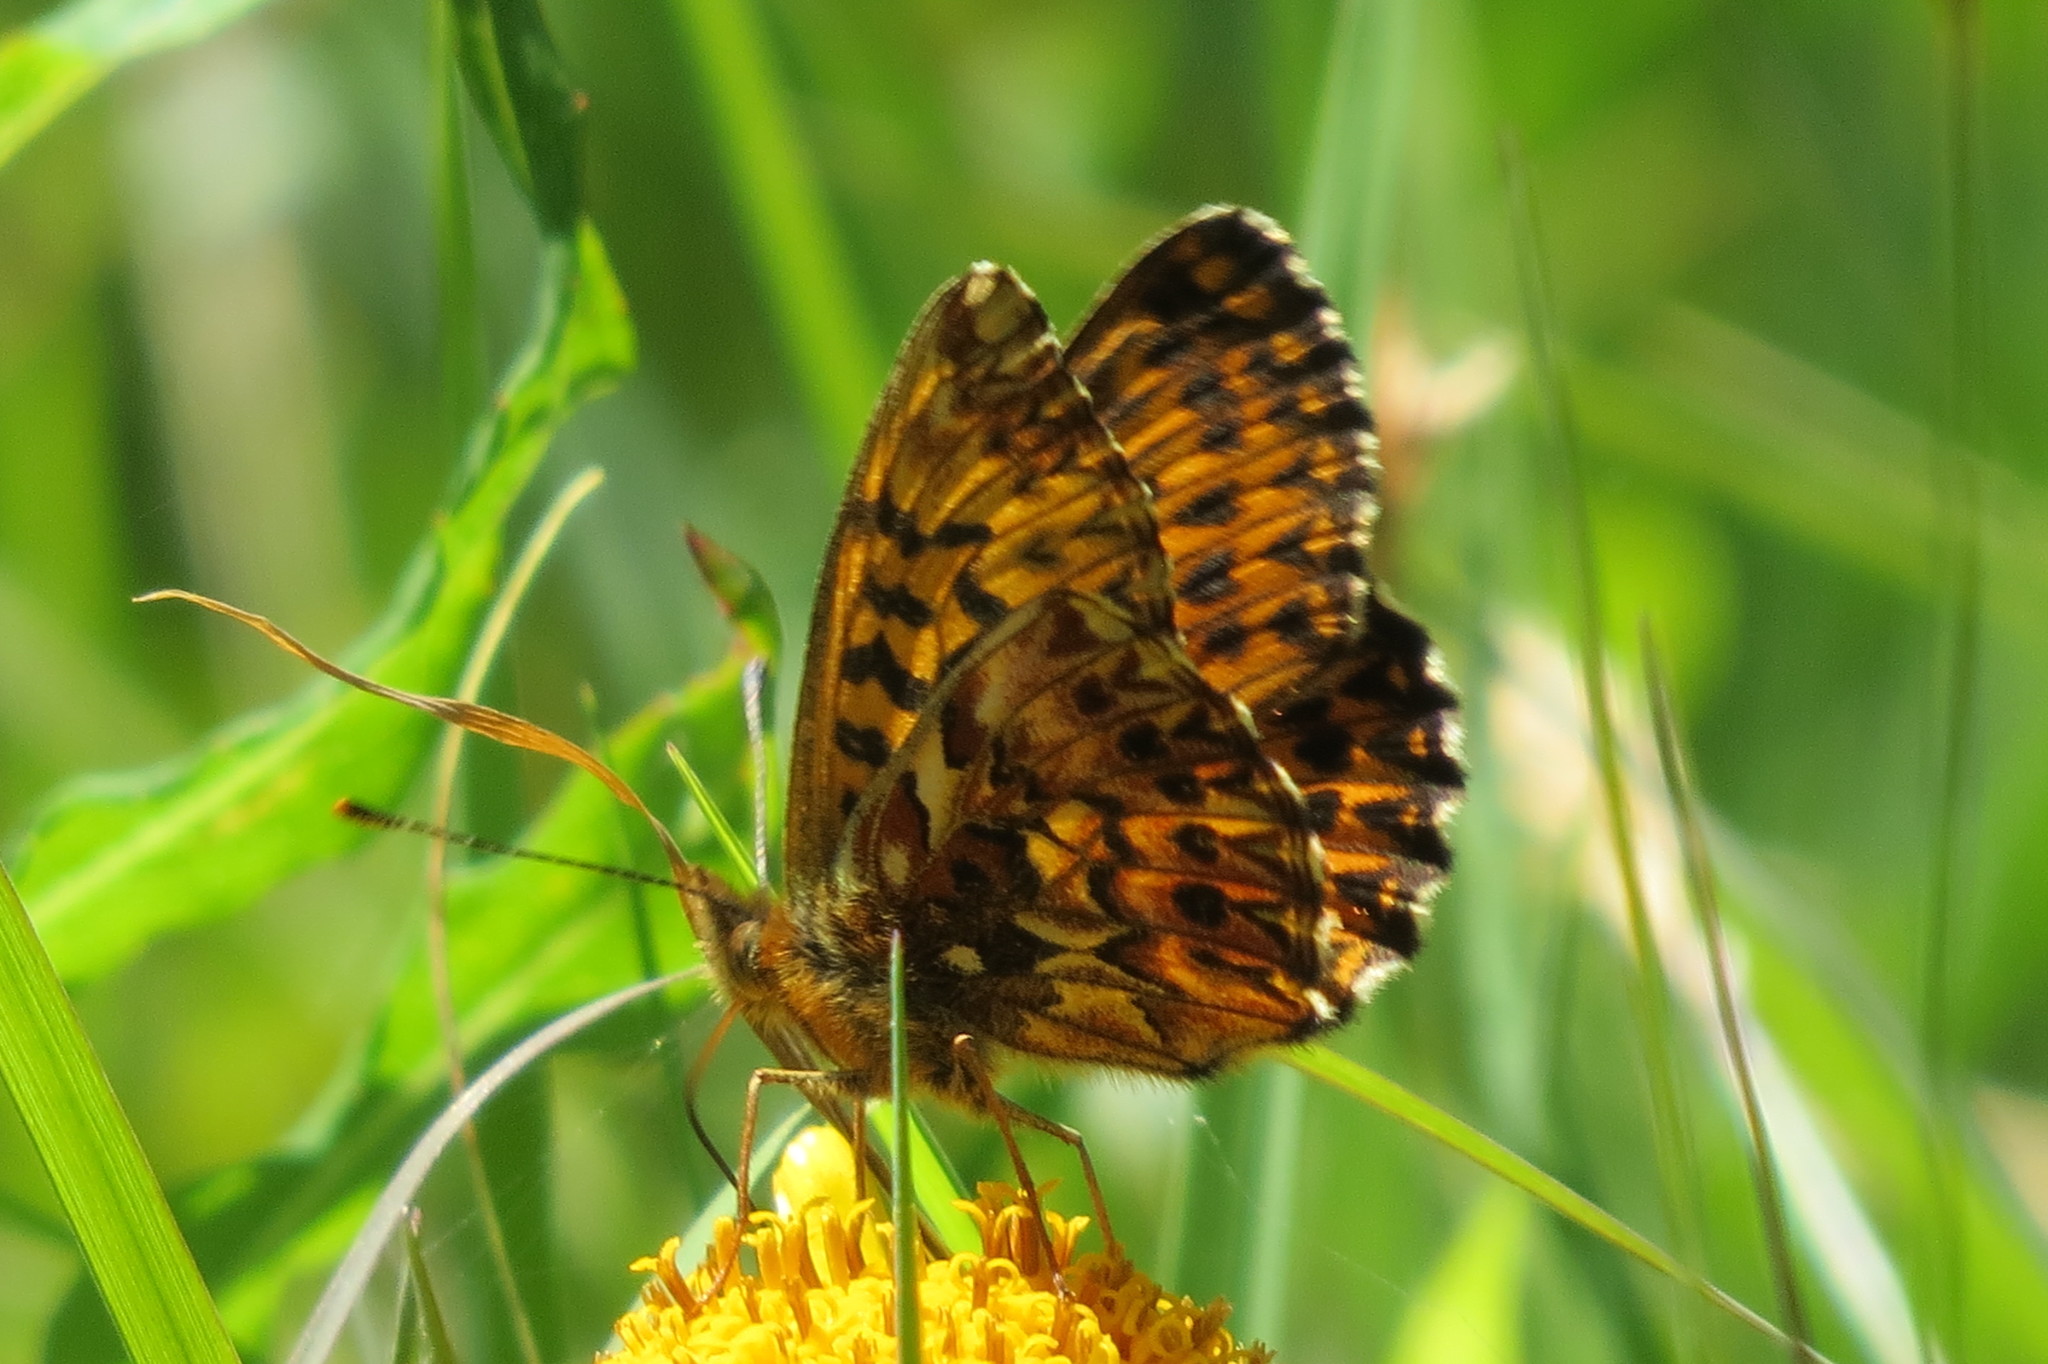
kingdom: Animalia
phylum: Arthropoda
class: Insecta
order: Lepidoptera
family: Nymphalidae
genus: Boloria
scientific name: Boloria titania
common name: Titania's fritillary
